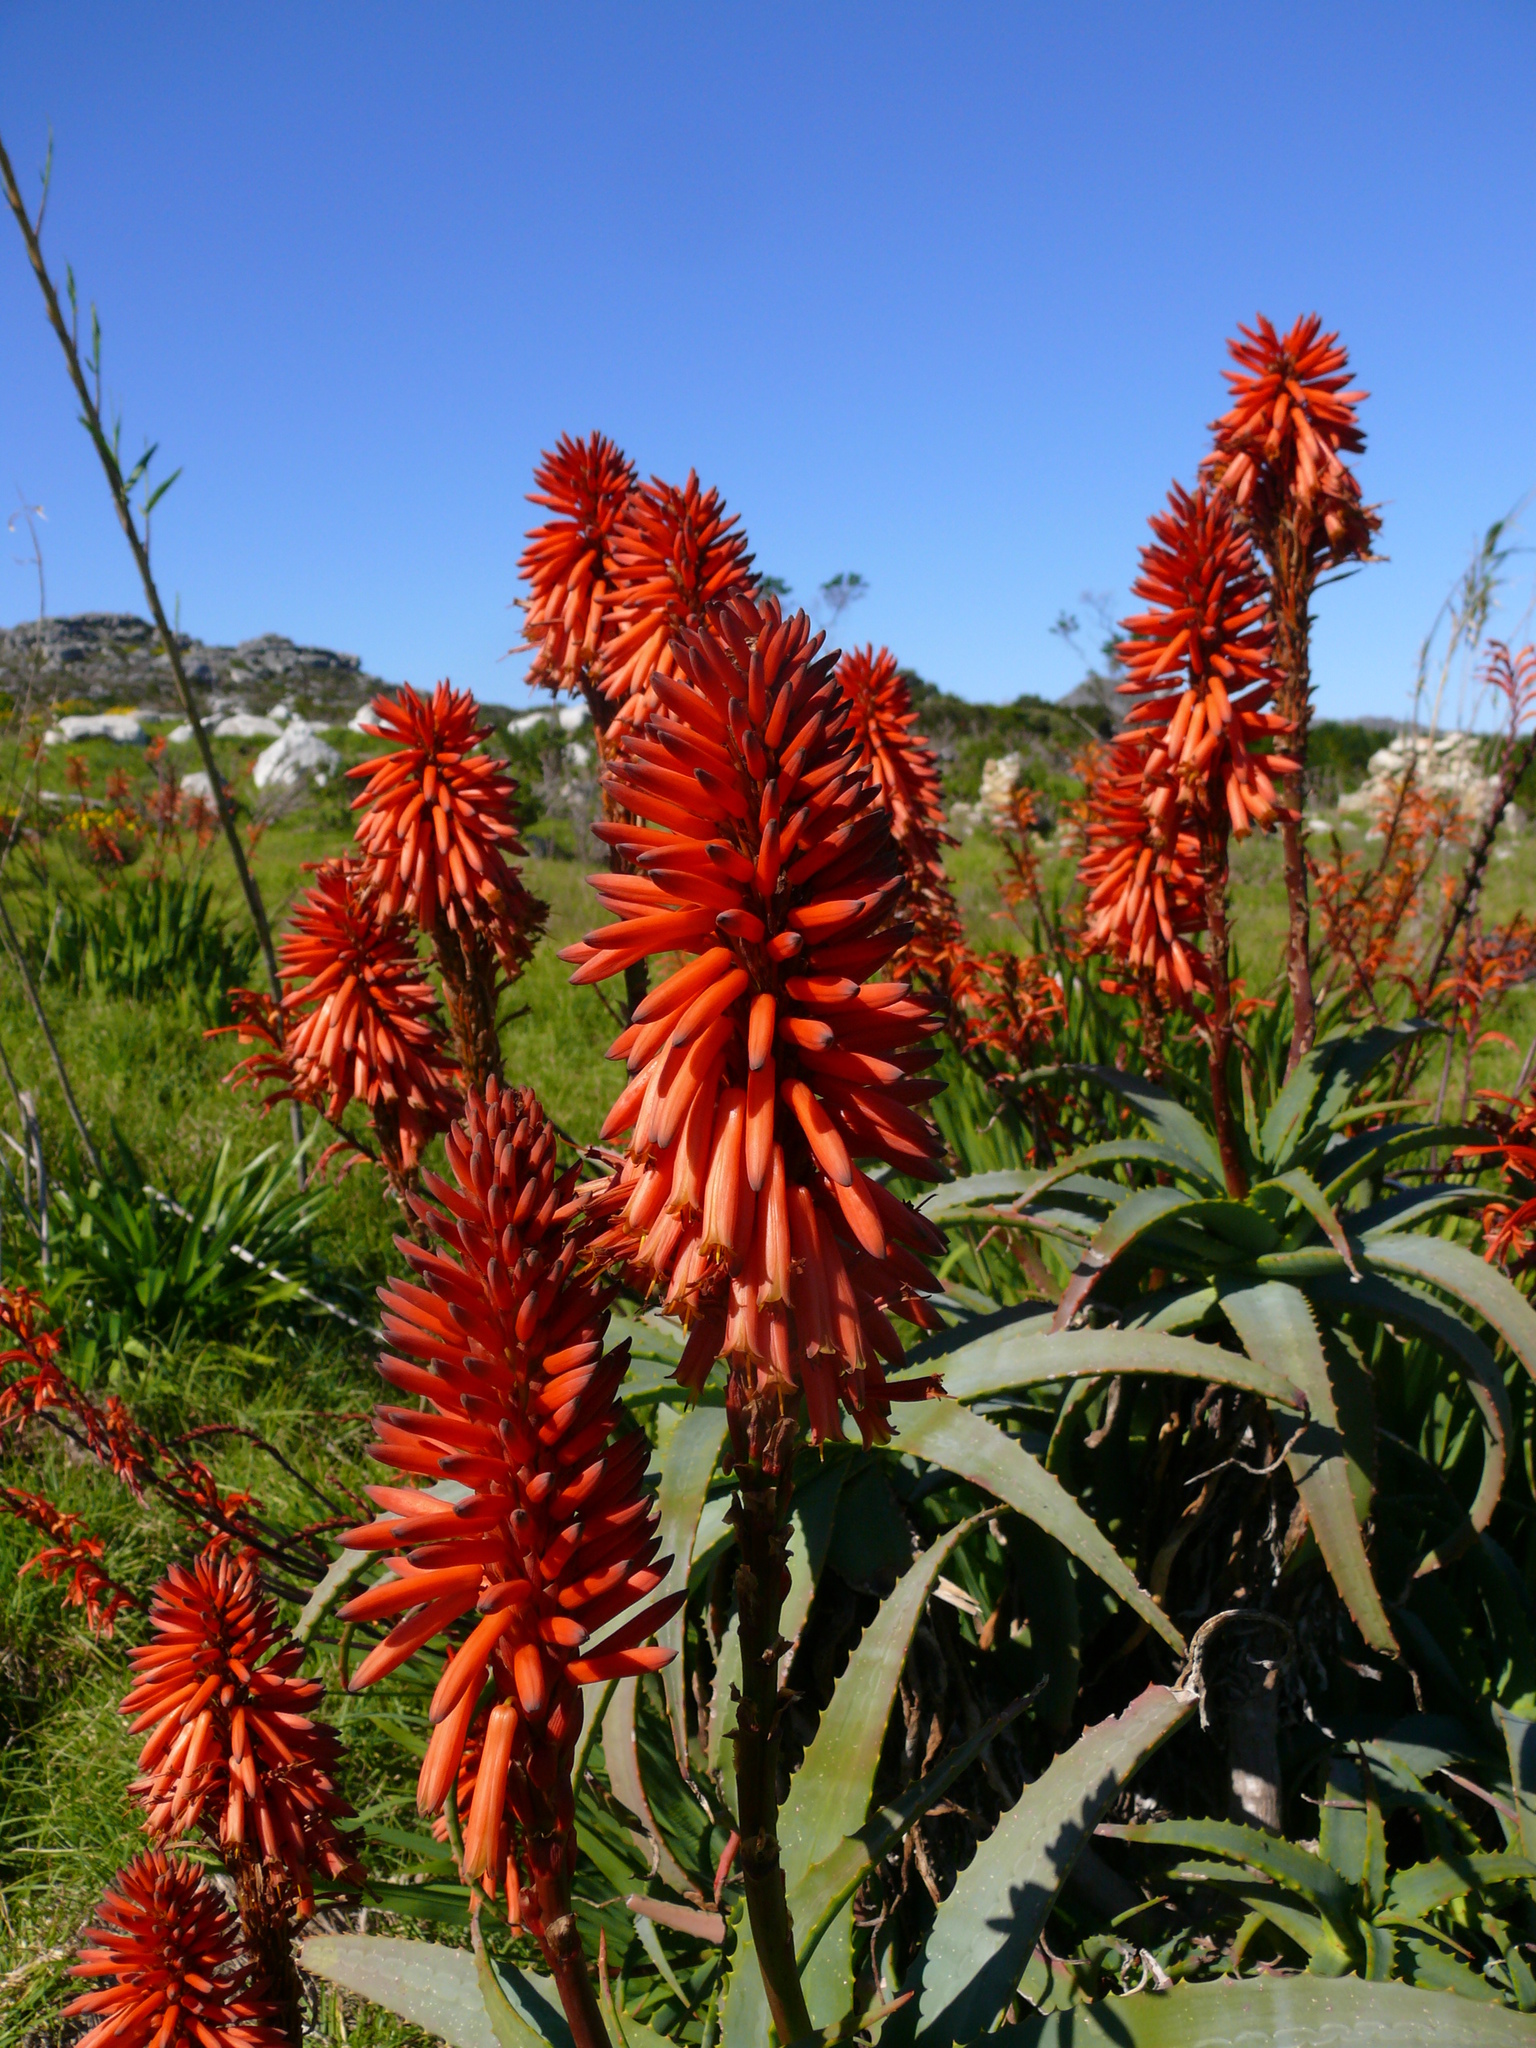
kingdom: Plantae
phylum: Tracheophyta
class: Liliopsida
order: Asparagales
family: Asphodelaceae
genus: Aloe
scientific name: Aloe arborescens
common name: Candelabra aloe
